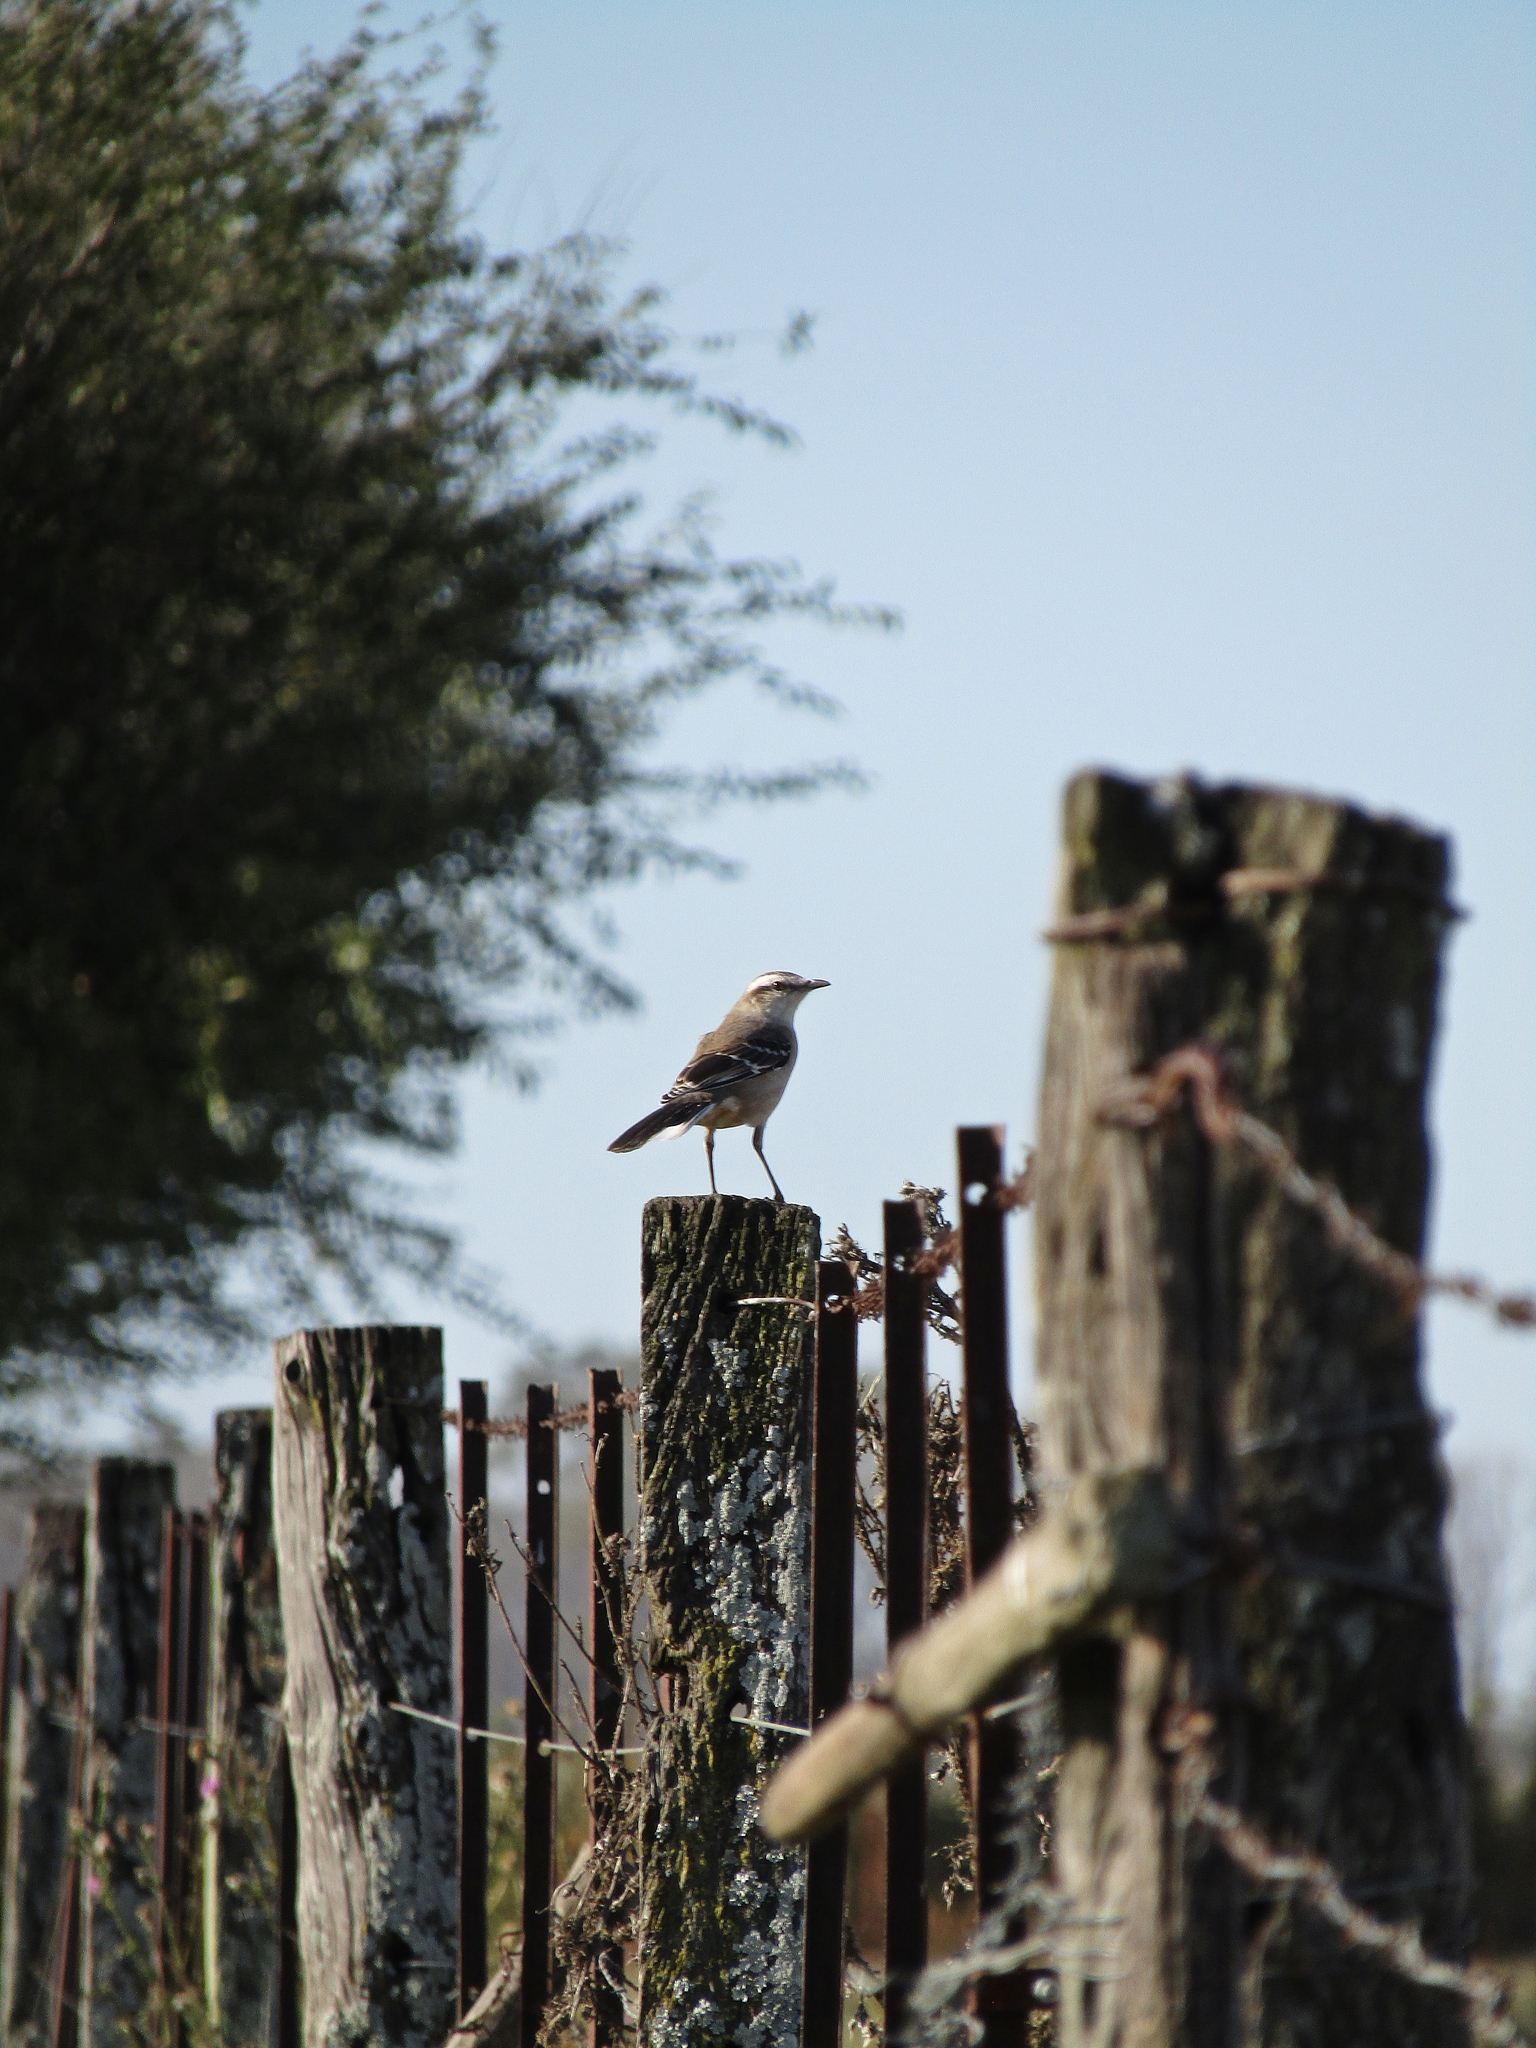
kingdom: Animalia
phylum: Chordata
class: Aves
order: Passeriformes
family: Mimidae
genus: Mimus
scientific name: Mimus saturninus
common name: Chalk-browed mockingbird
